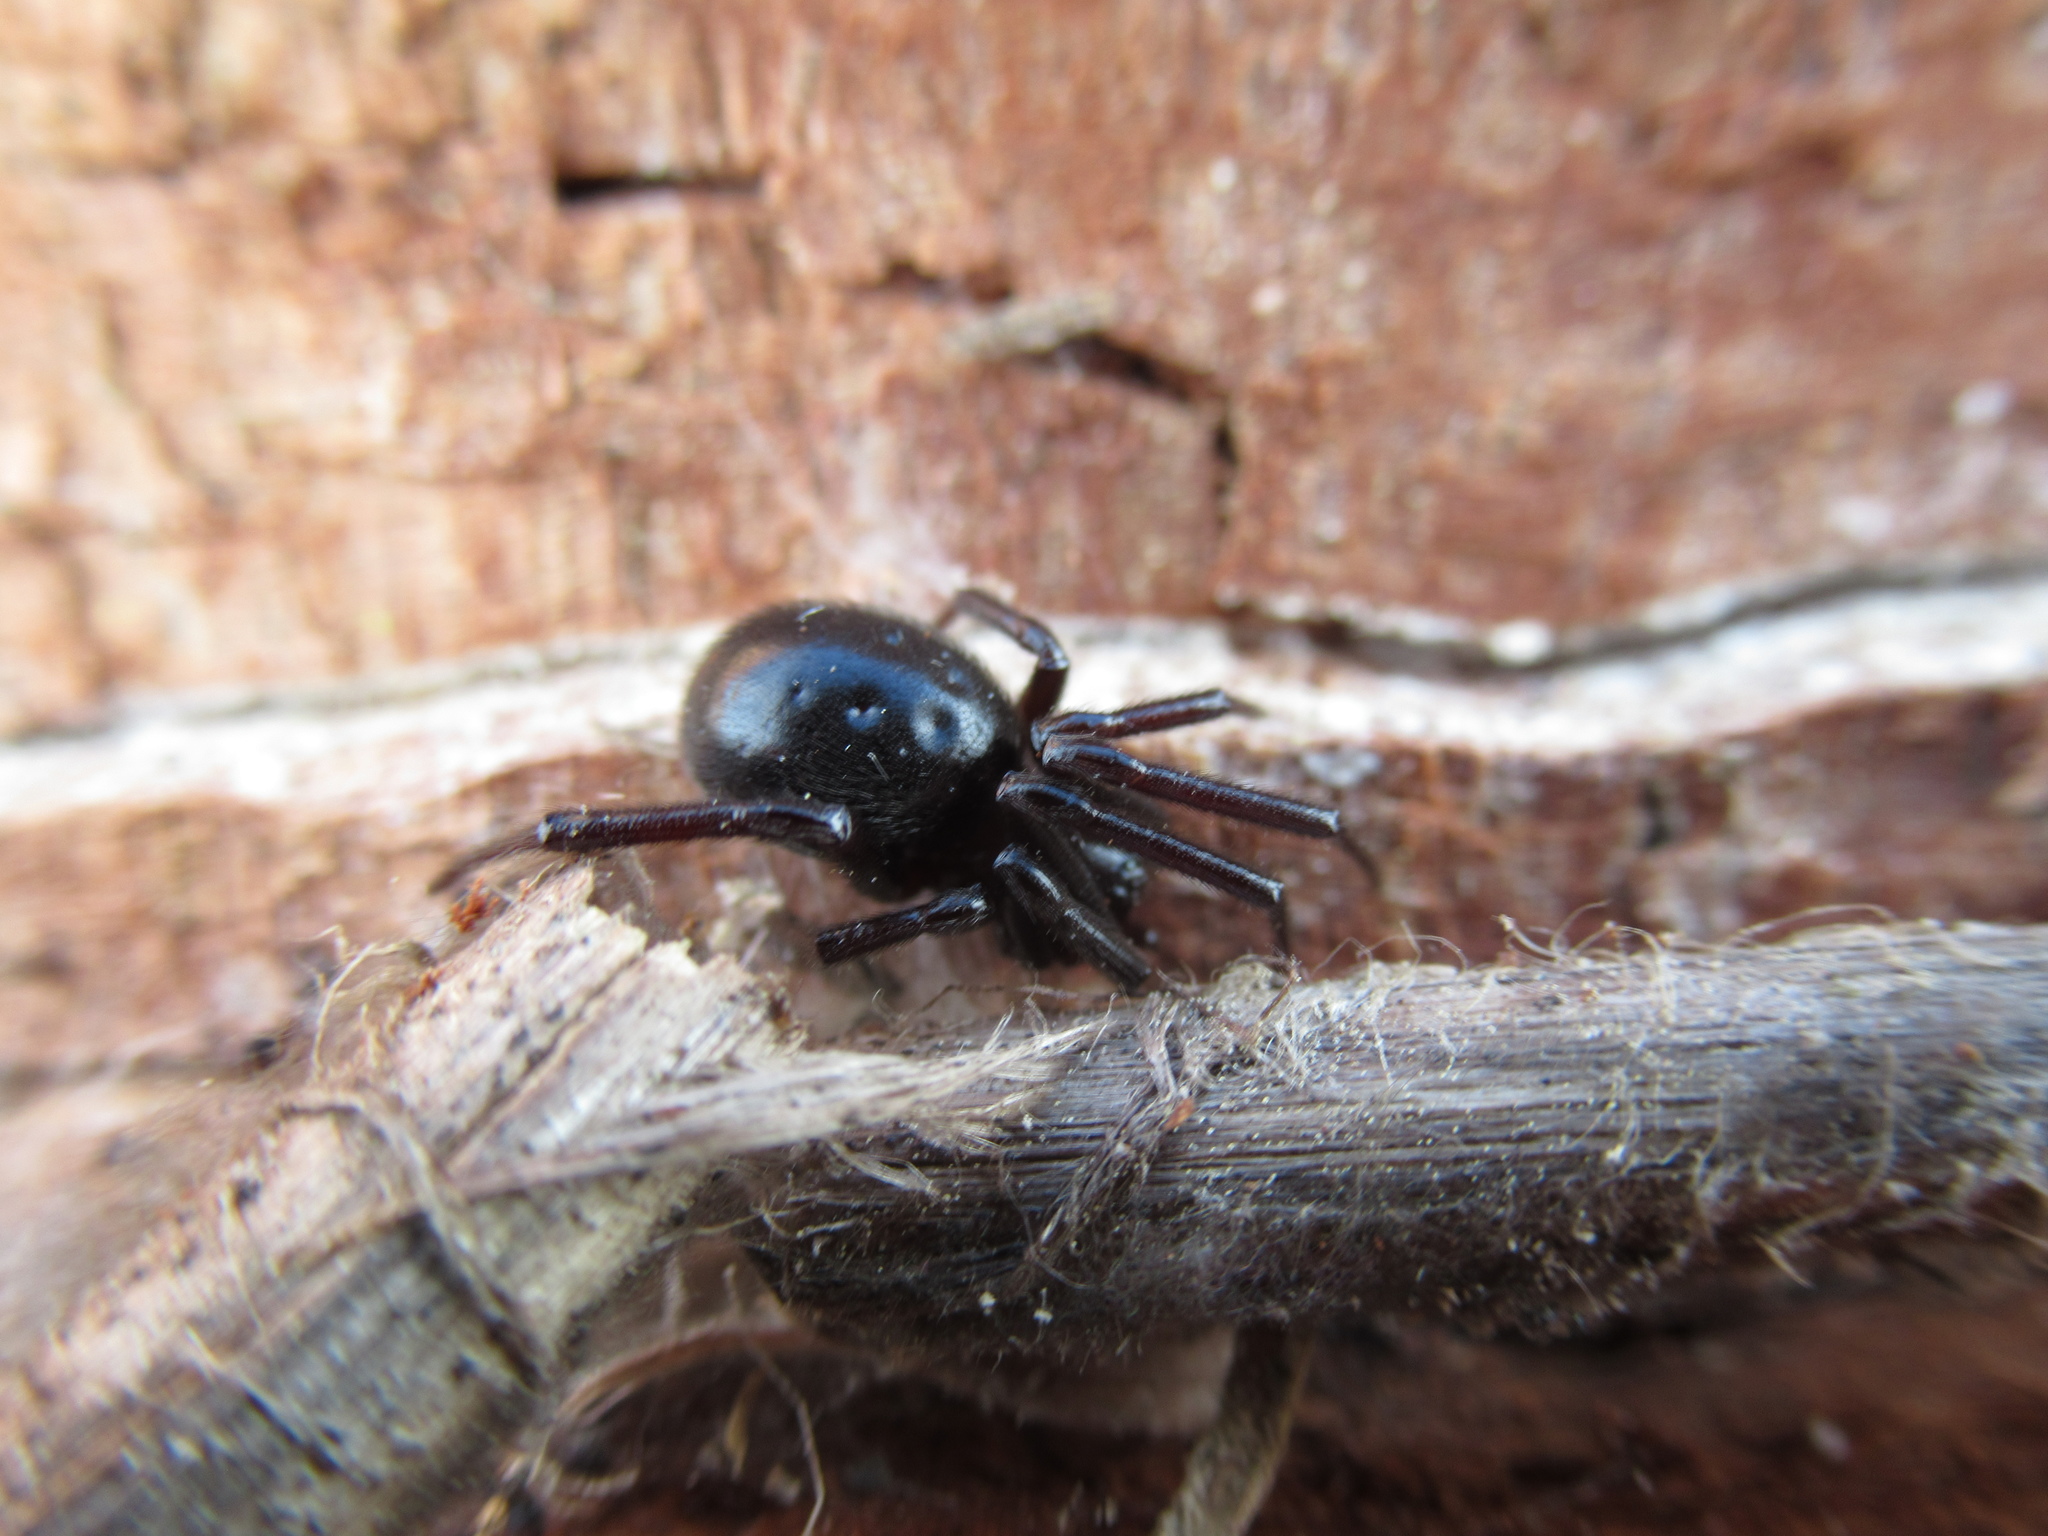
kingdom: Animalia
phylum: Arthropoda
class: Arachnida
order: Araneae
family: Theridiidae
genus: Steatoda
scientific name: Steatoda capensis
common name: Cobweb weaver
